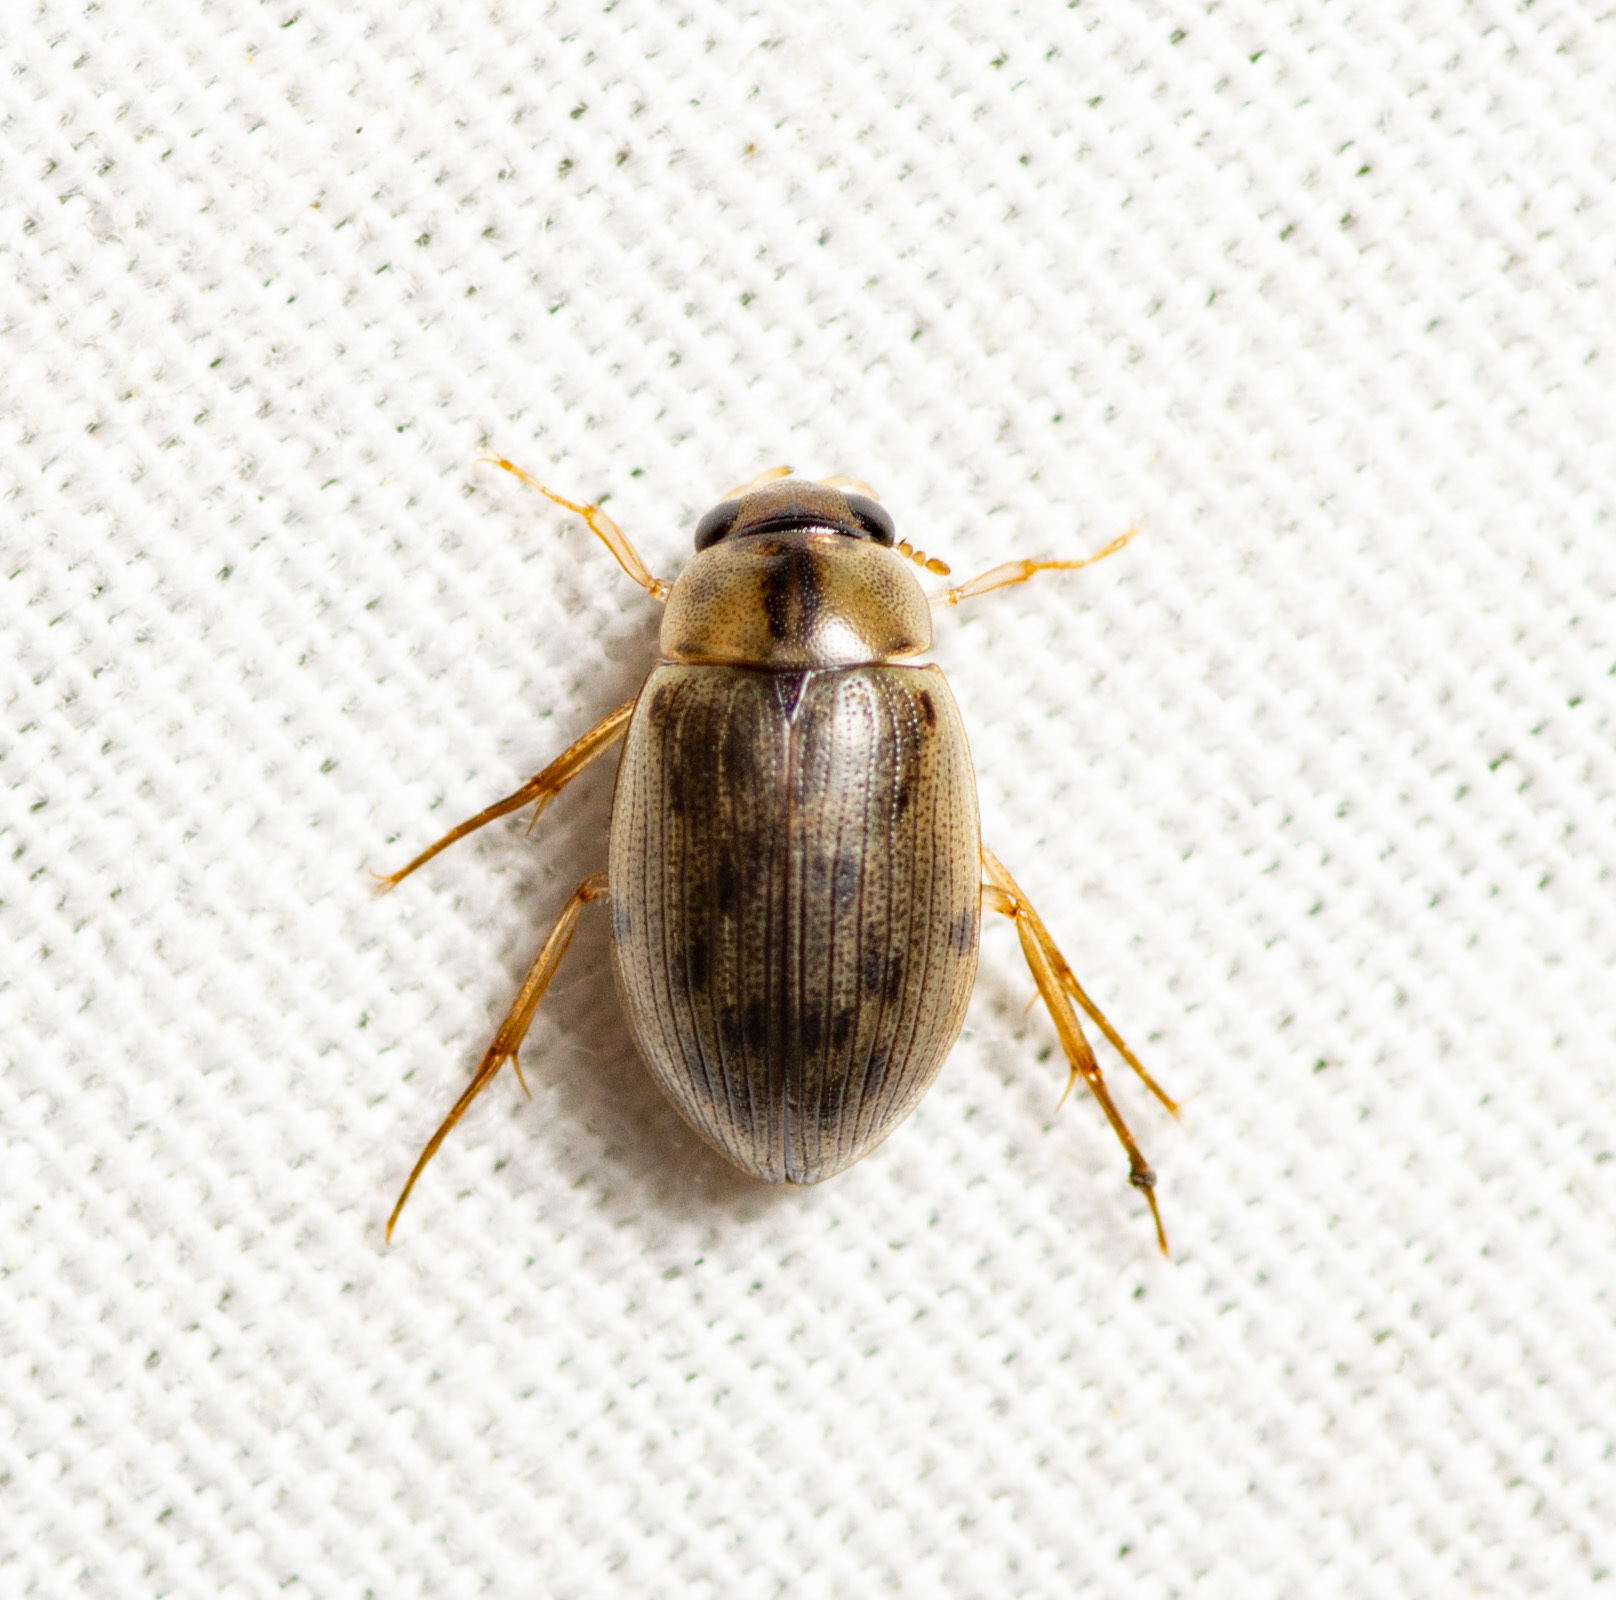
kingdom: Animalia
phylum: Arthropoda
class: Insecta
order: Coleoptera
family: Hydrophilidae
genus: Berosus
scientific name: Berosus
